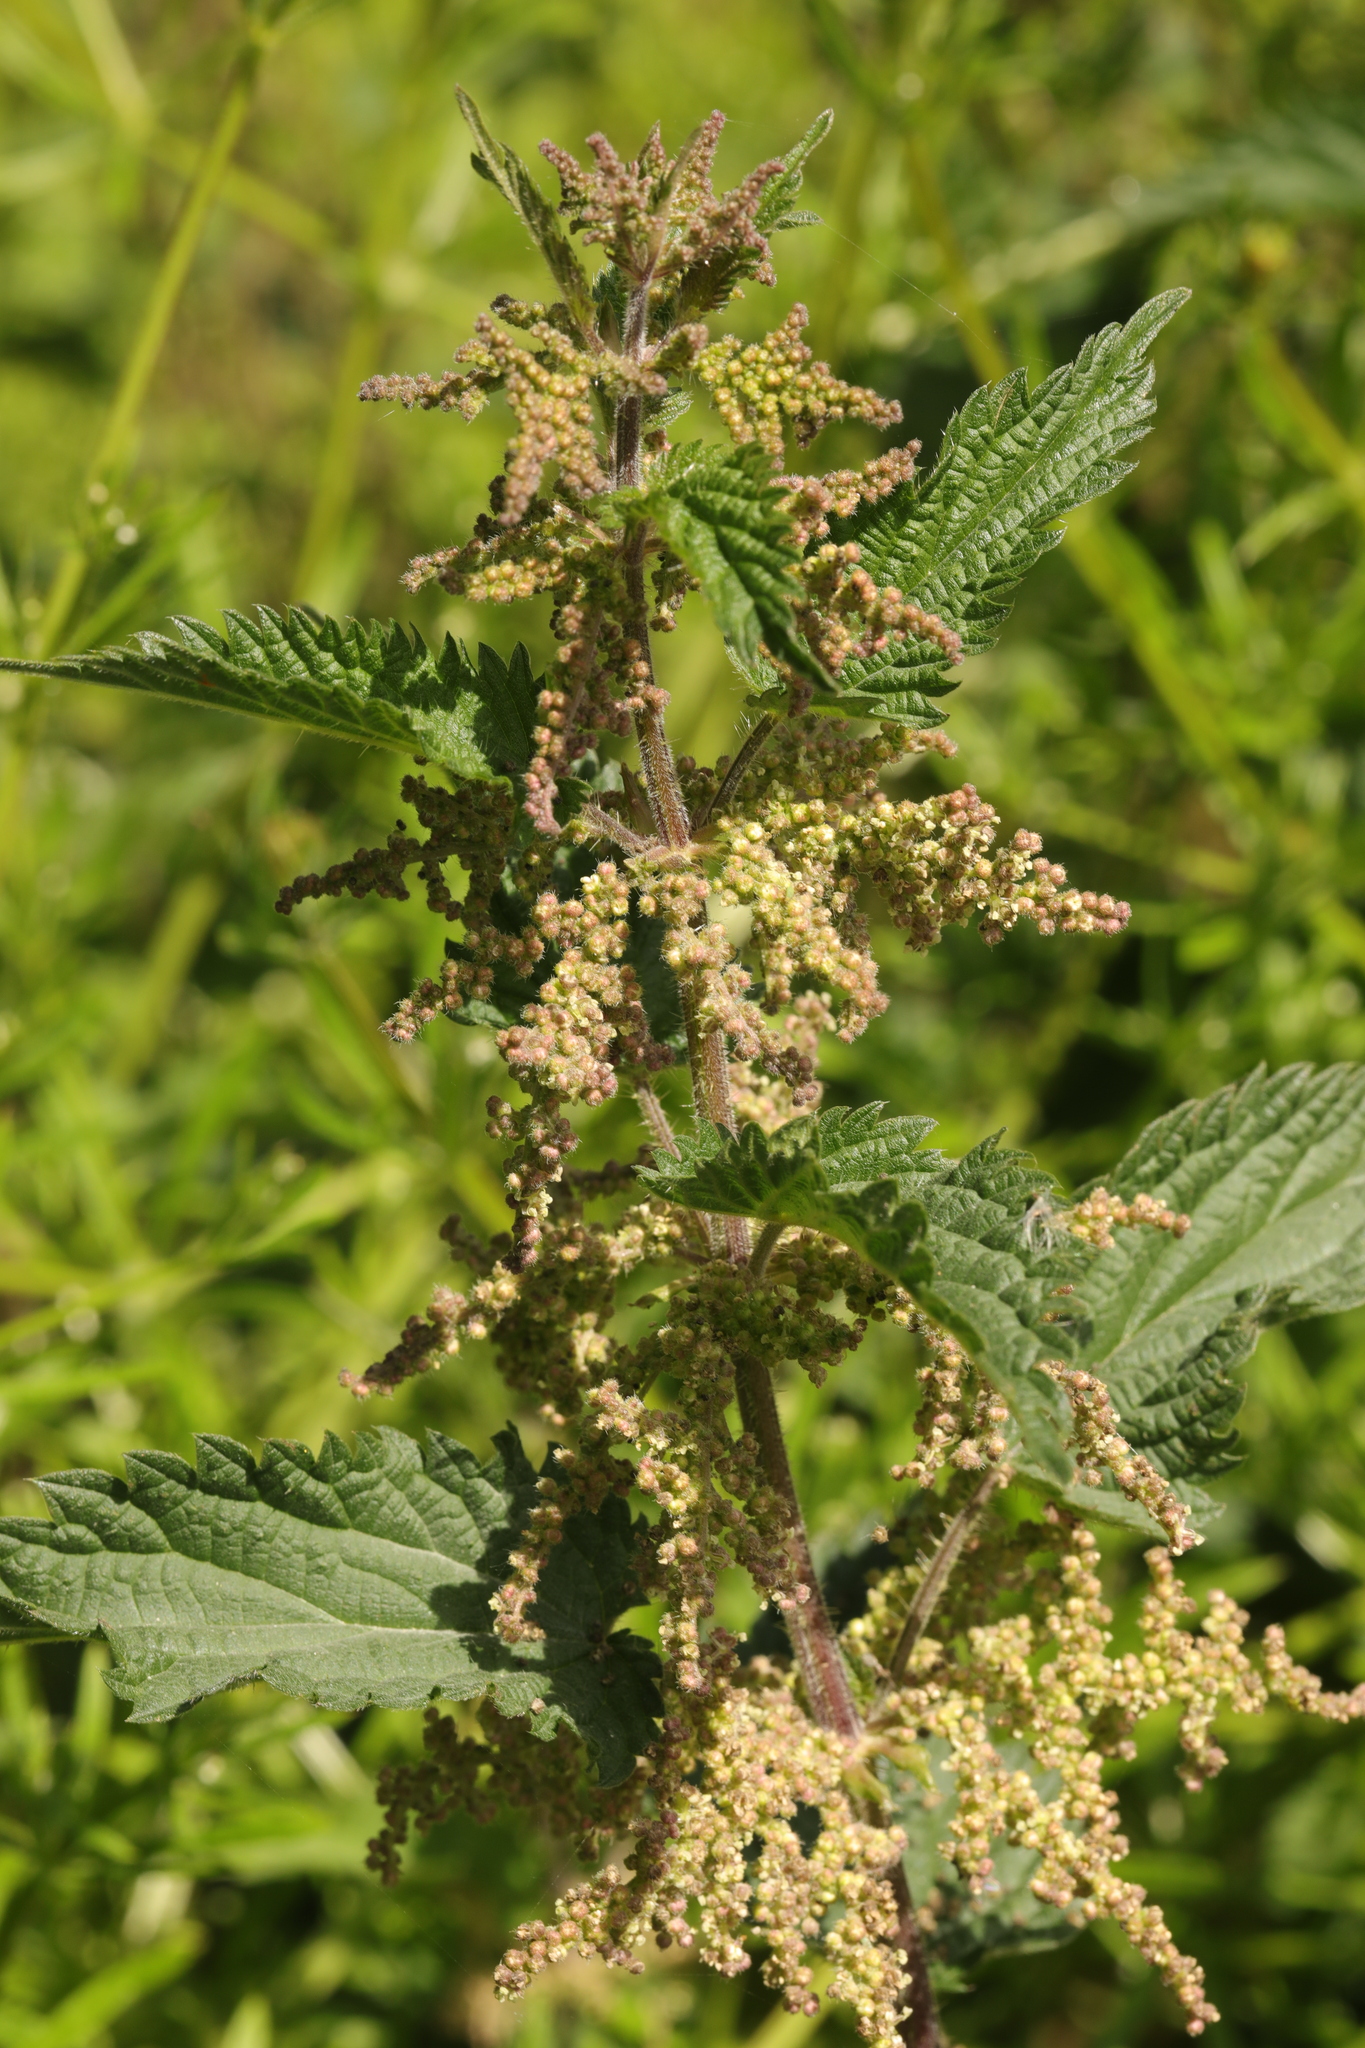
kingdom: Plantae
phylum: Tracheophyta
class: Magnoliopsida
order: Rosales
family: Urticaceae
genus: Urtica
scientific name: Urtica dioica
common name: Common nettle
